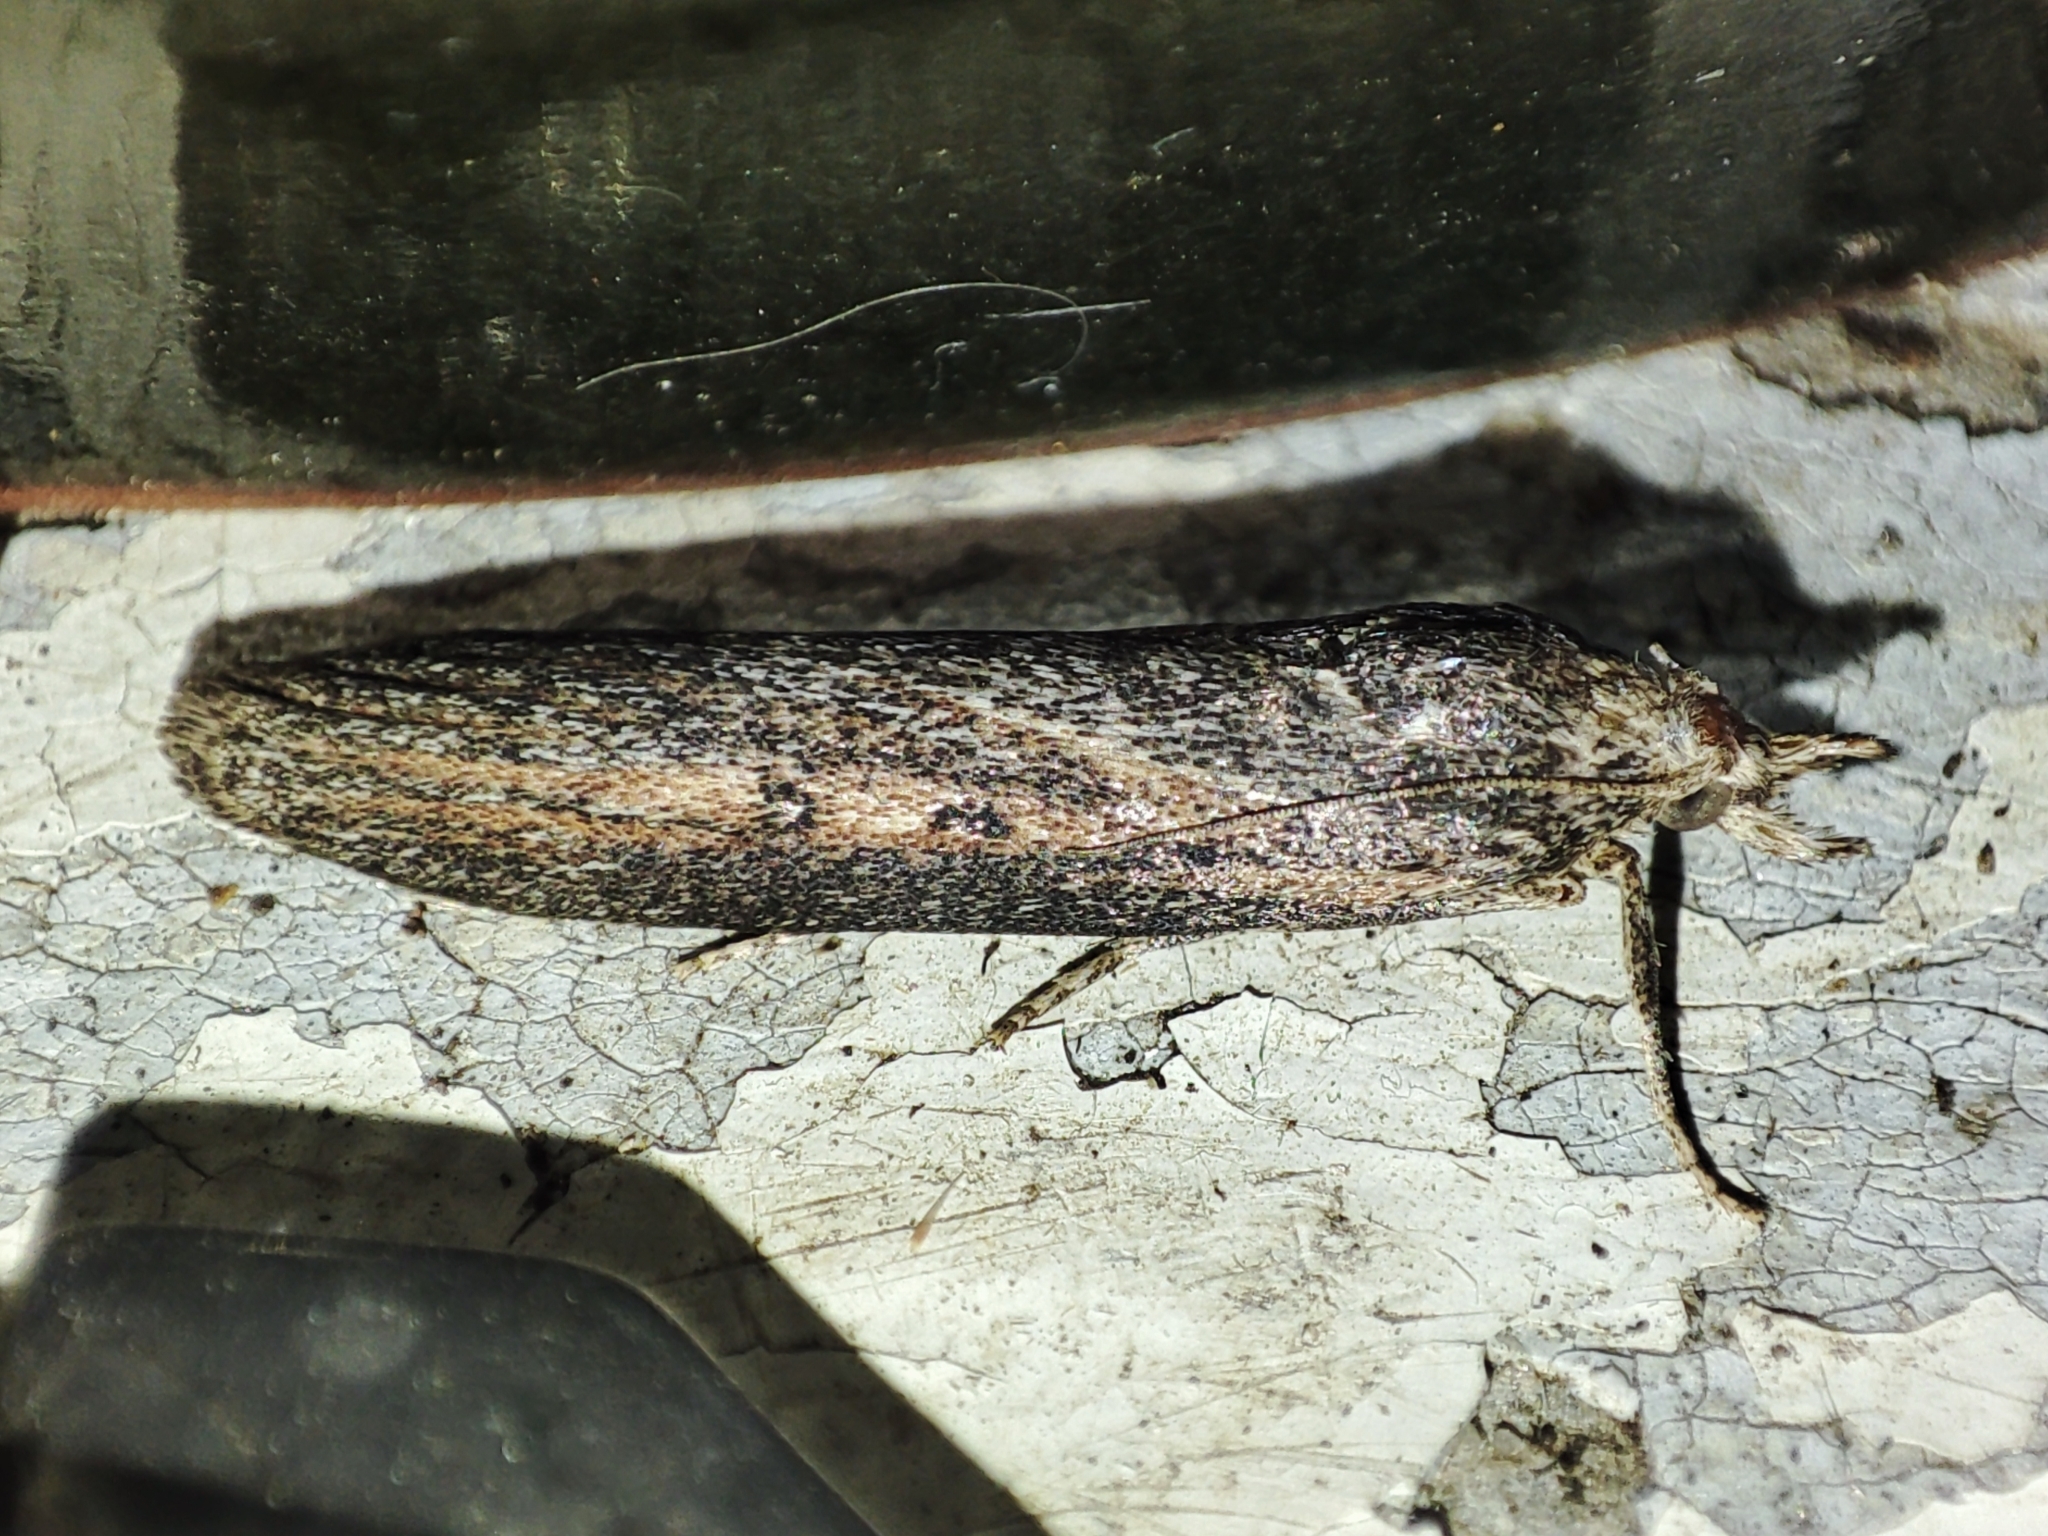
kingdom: Animalia
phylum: Arthropoda
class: Insecta
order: Lepidoptera
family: Pyralidae
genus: Aphomia
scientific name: Aphomia zelleri
